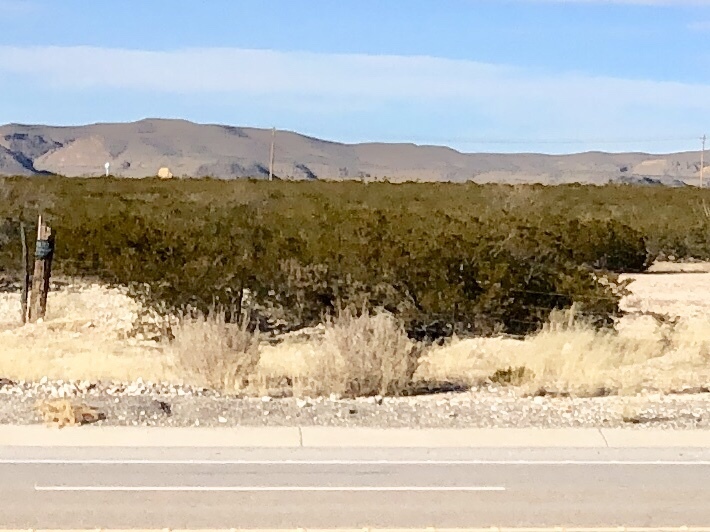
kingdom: Plantae
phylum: Tracheophyta
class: Magnoliopsida
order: Zygophyllales
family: Zygophyllaceae
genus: Larrea
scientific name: Larrea tridentata
